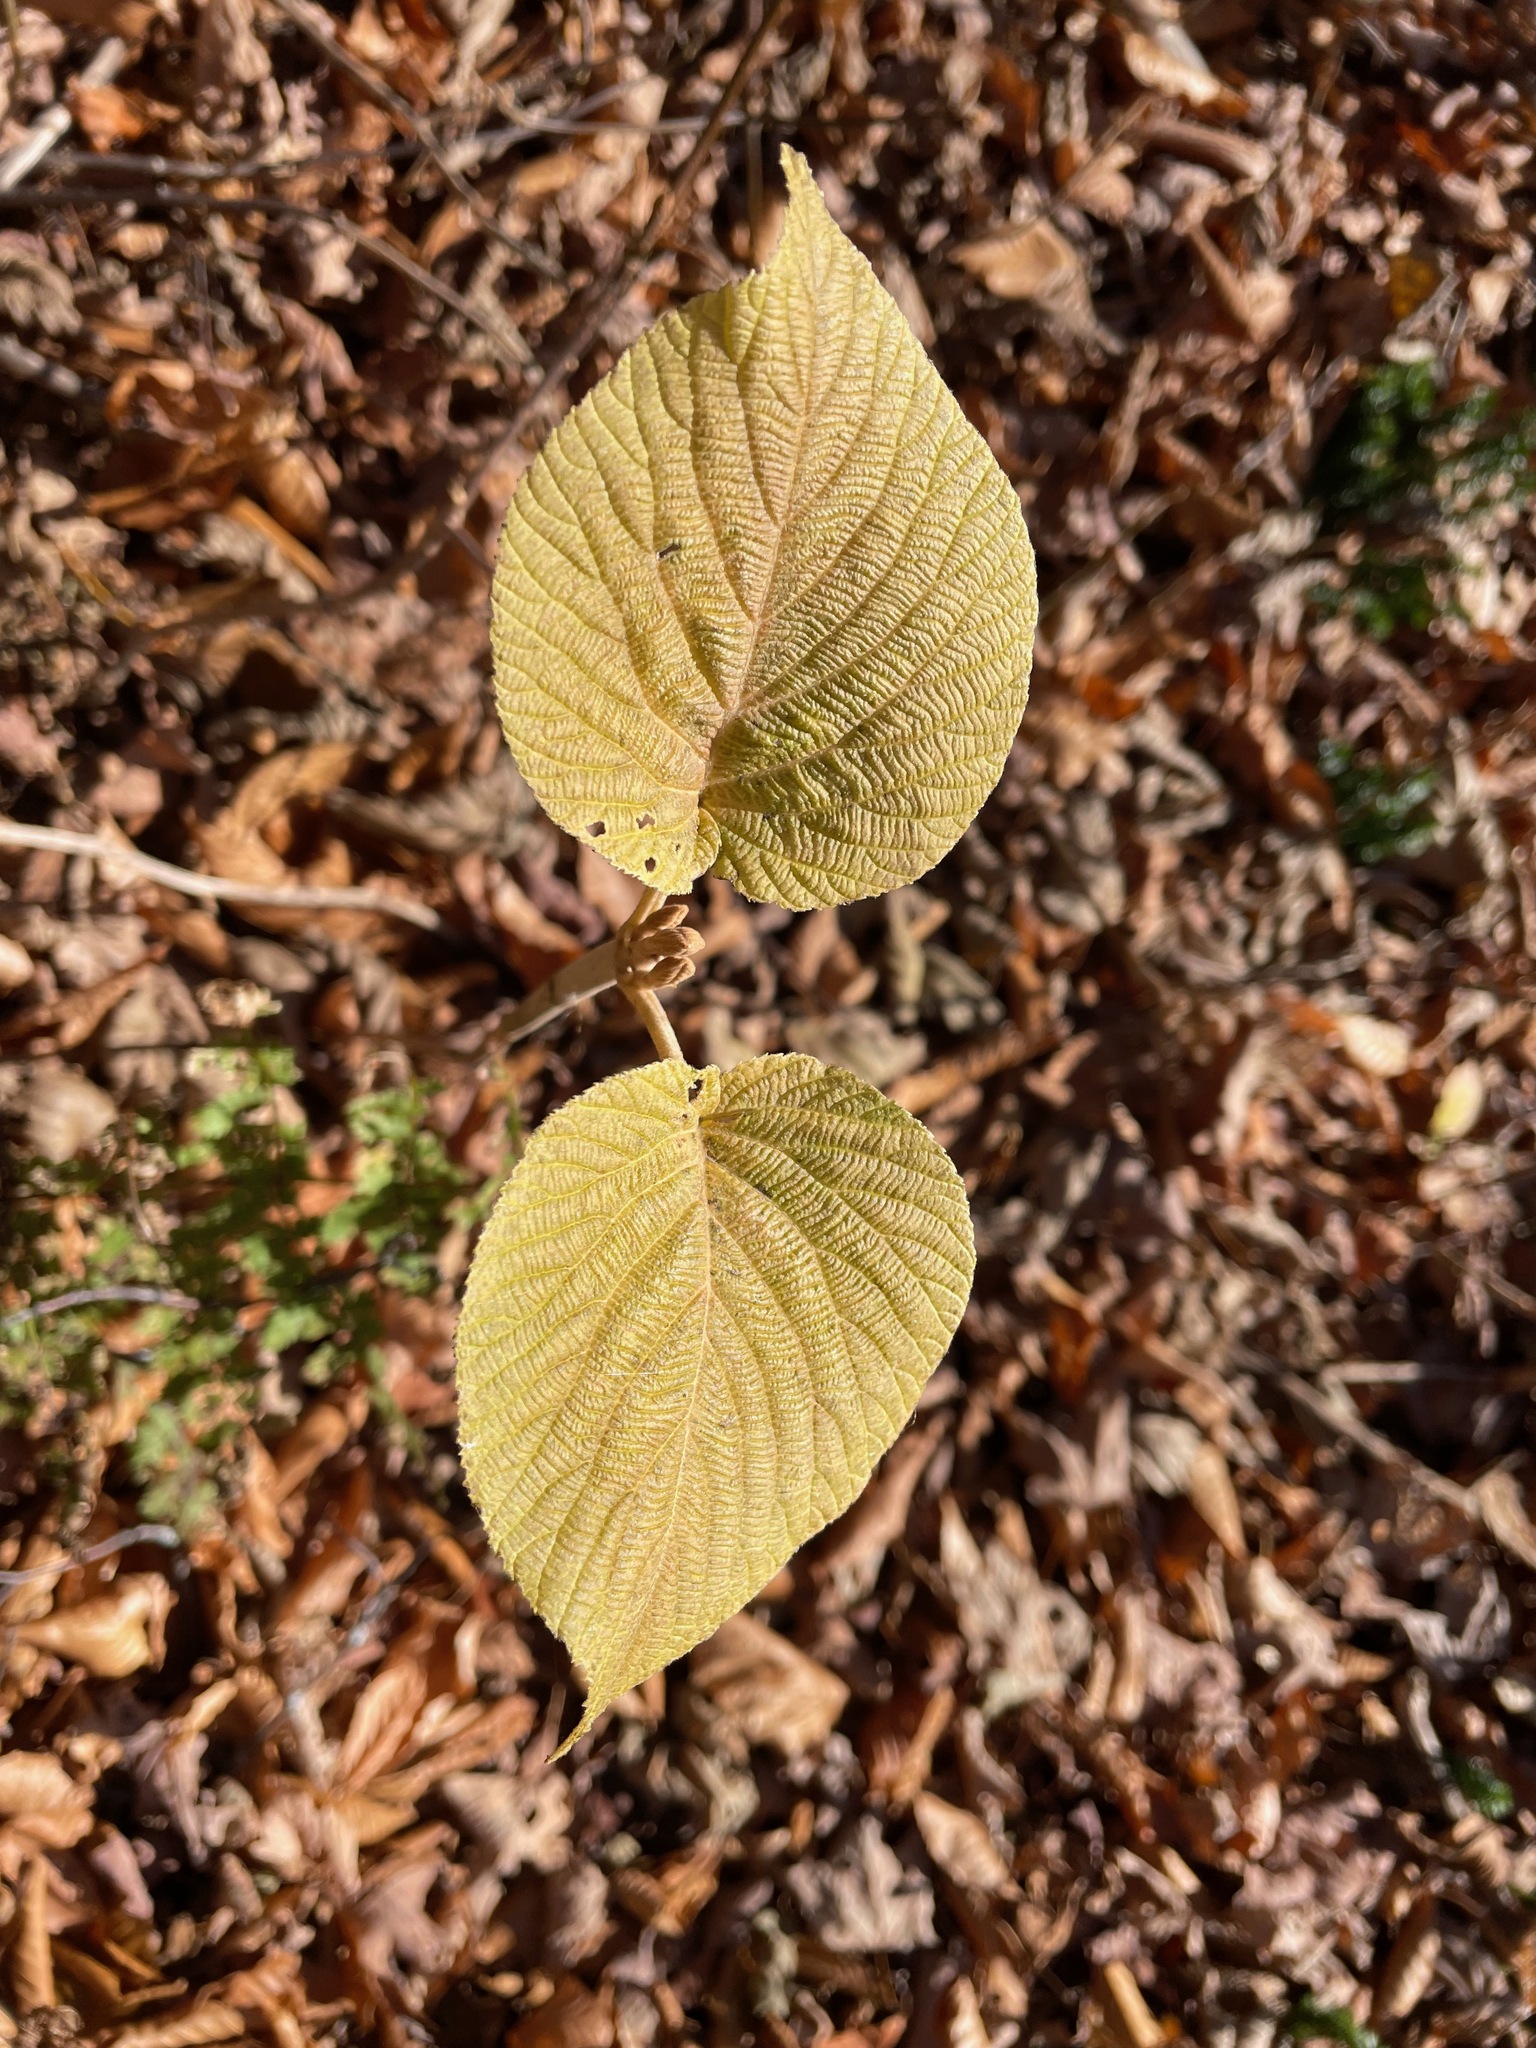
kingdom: Plantae
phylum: Tracheophyta
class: Magnoliopsida
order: Dipsacales
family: Viburnaceae
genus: Viburnum
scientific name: Viburnum lantanoides
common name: Hobblebush
